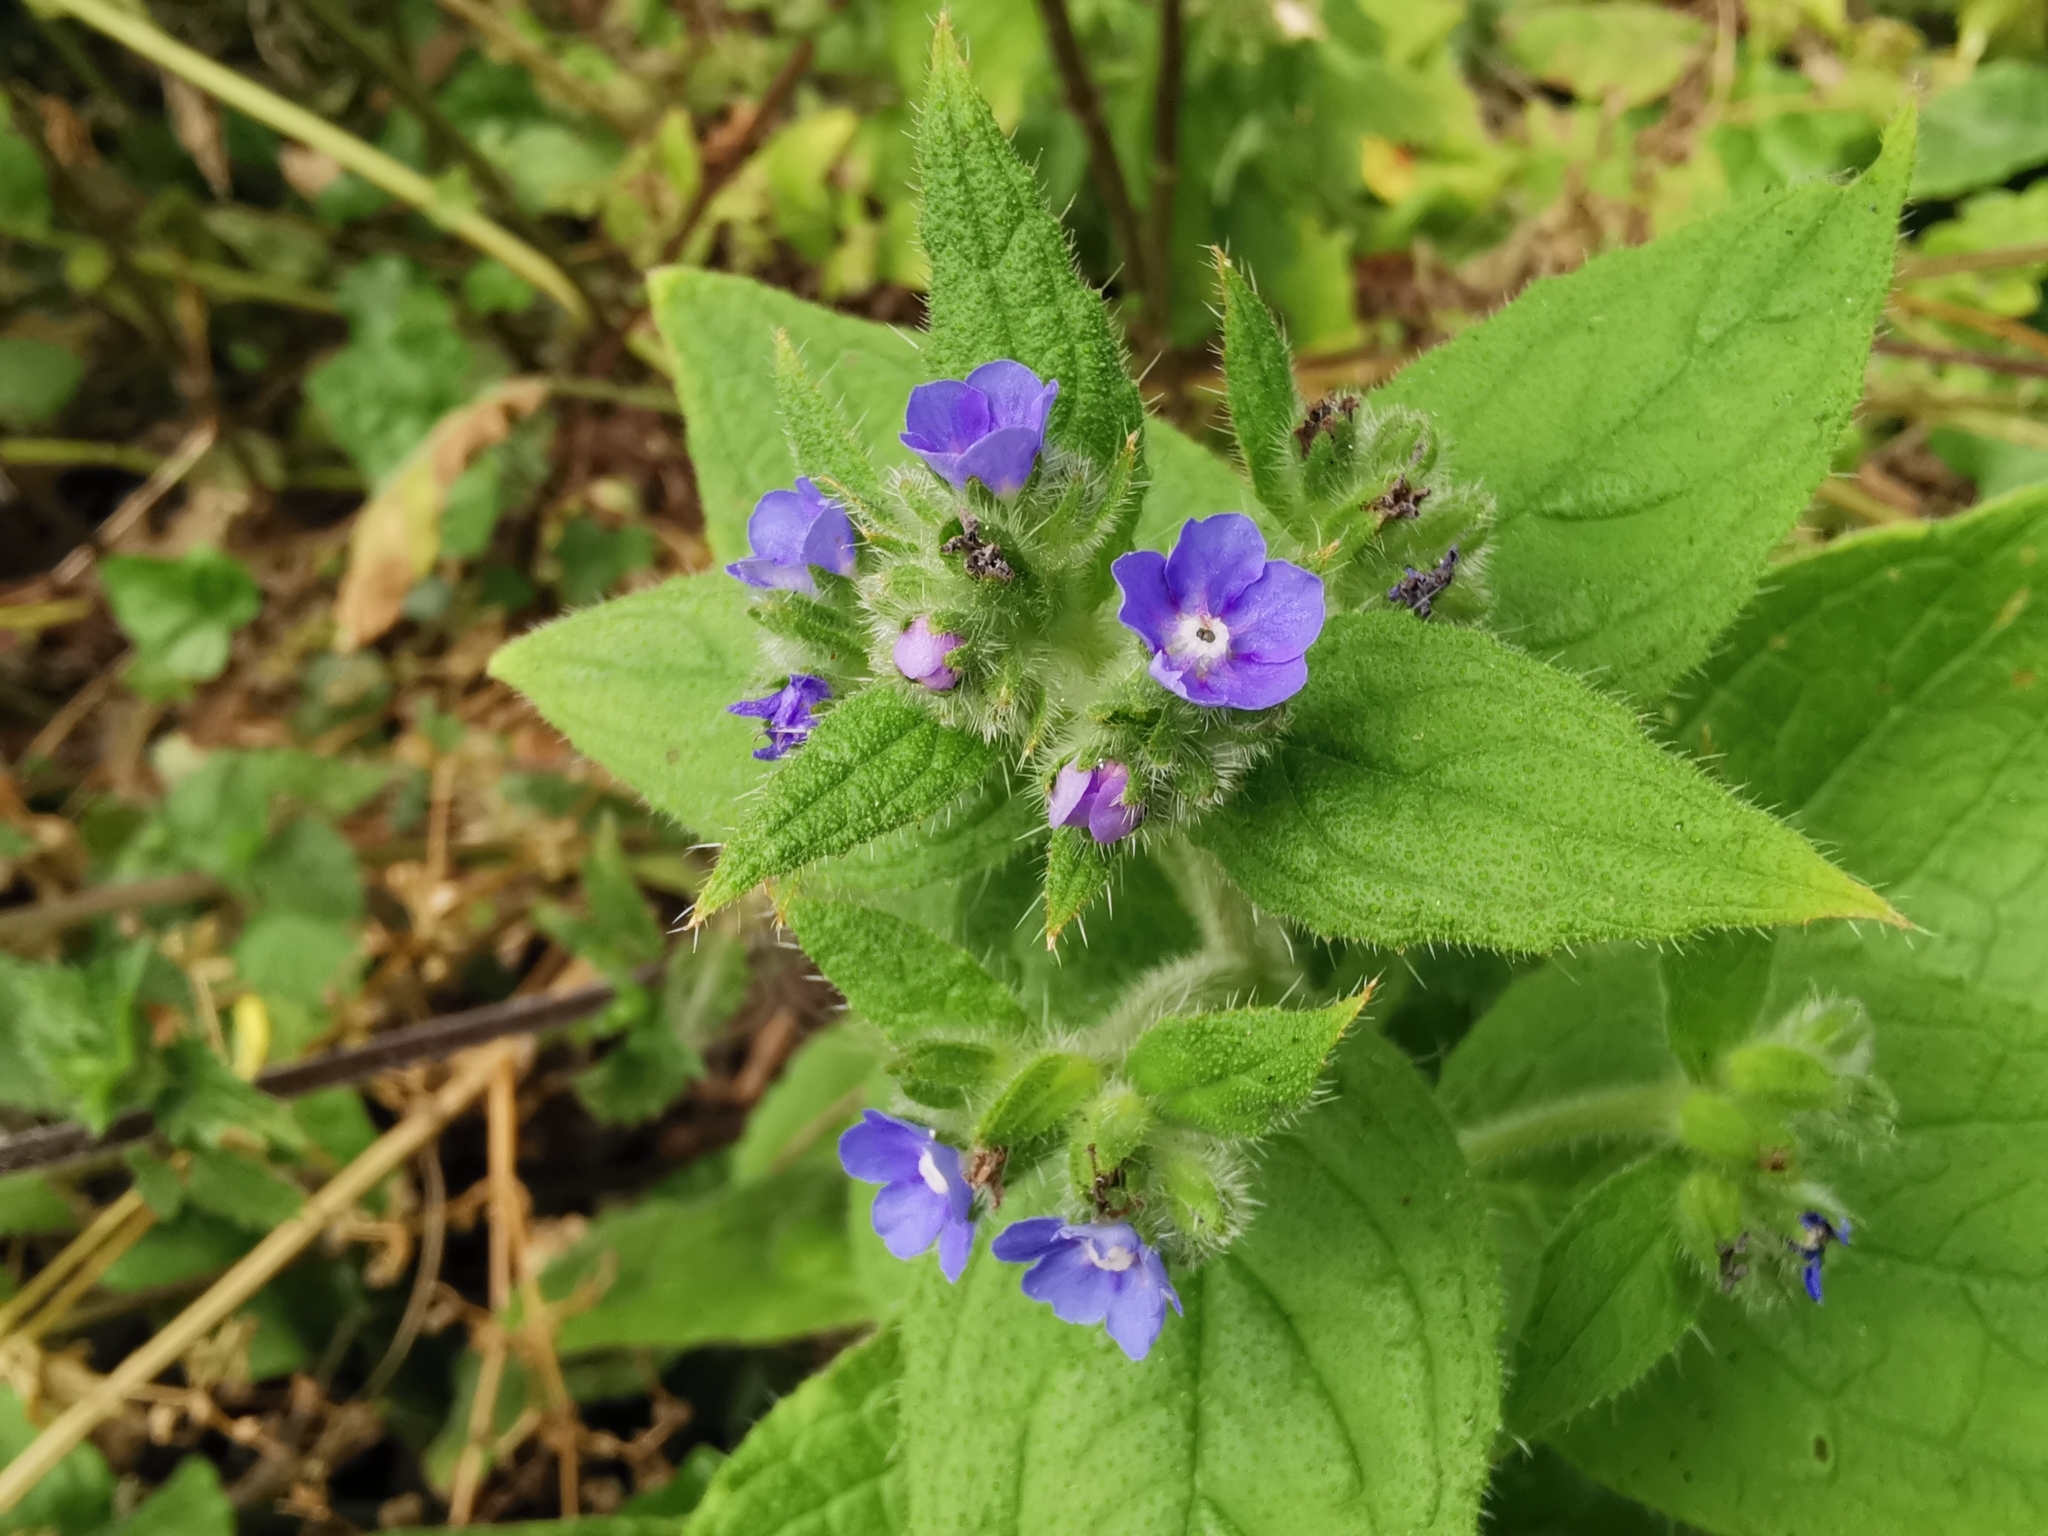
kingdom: Plantae
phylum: Tracheophyta
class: Magnoliopsida
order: Boraginales
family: Boraginaceae
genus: Pentaglottis
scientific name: Pentaglottis sempervirens
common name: Green alkanet
